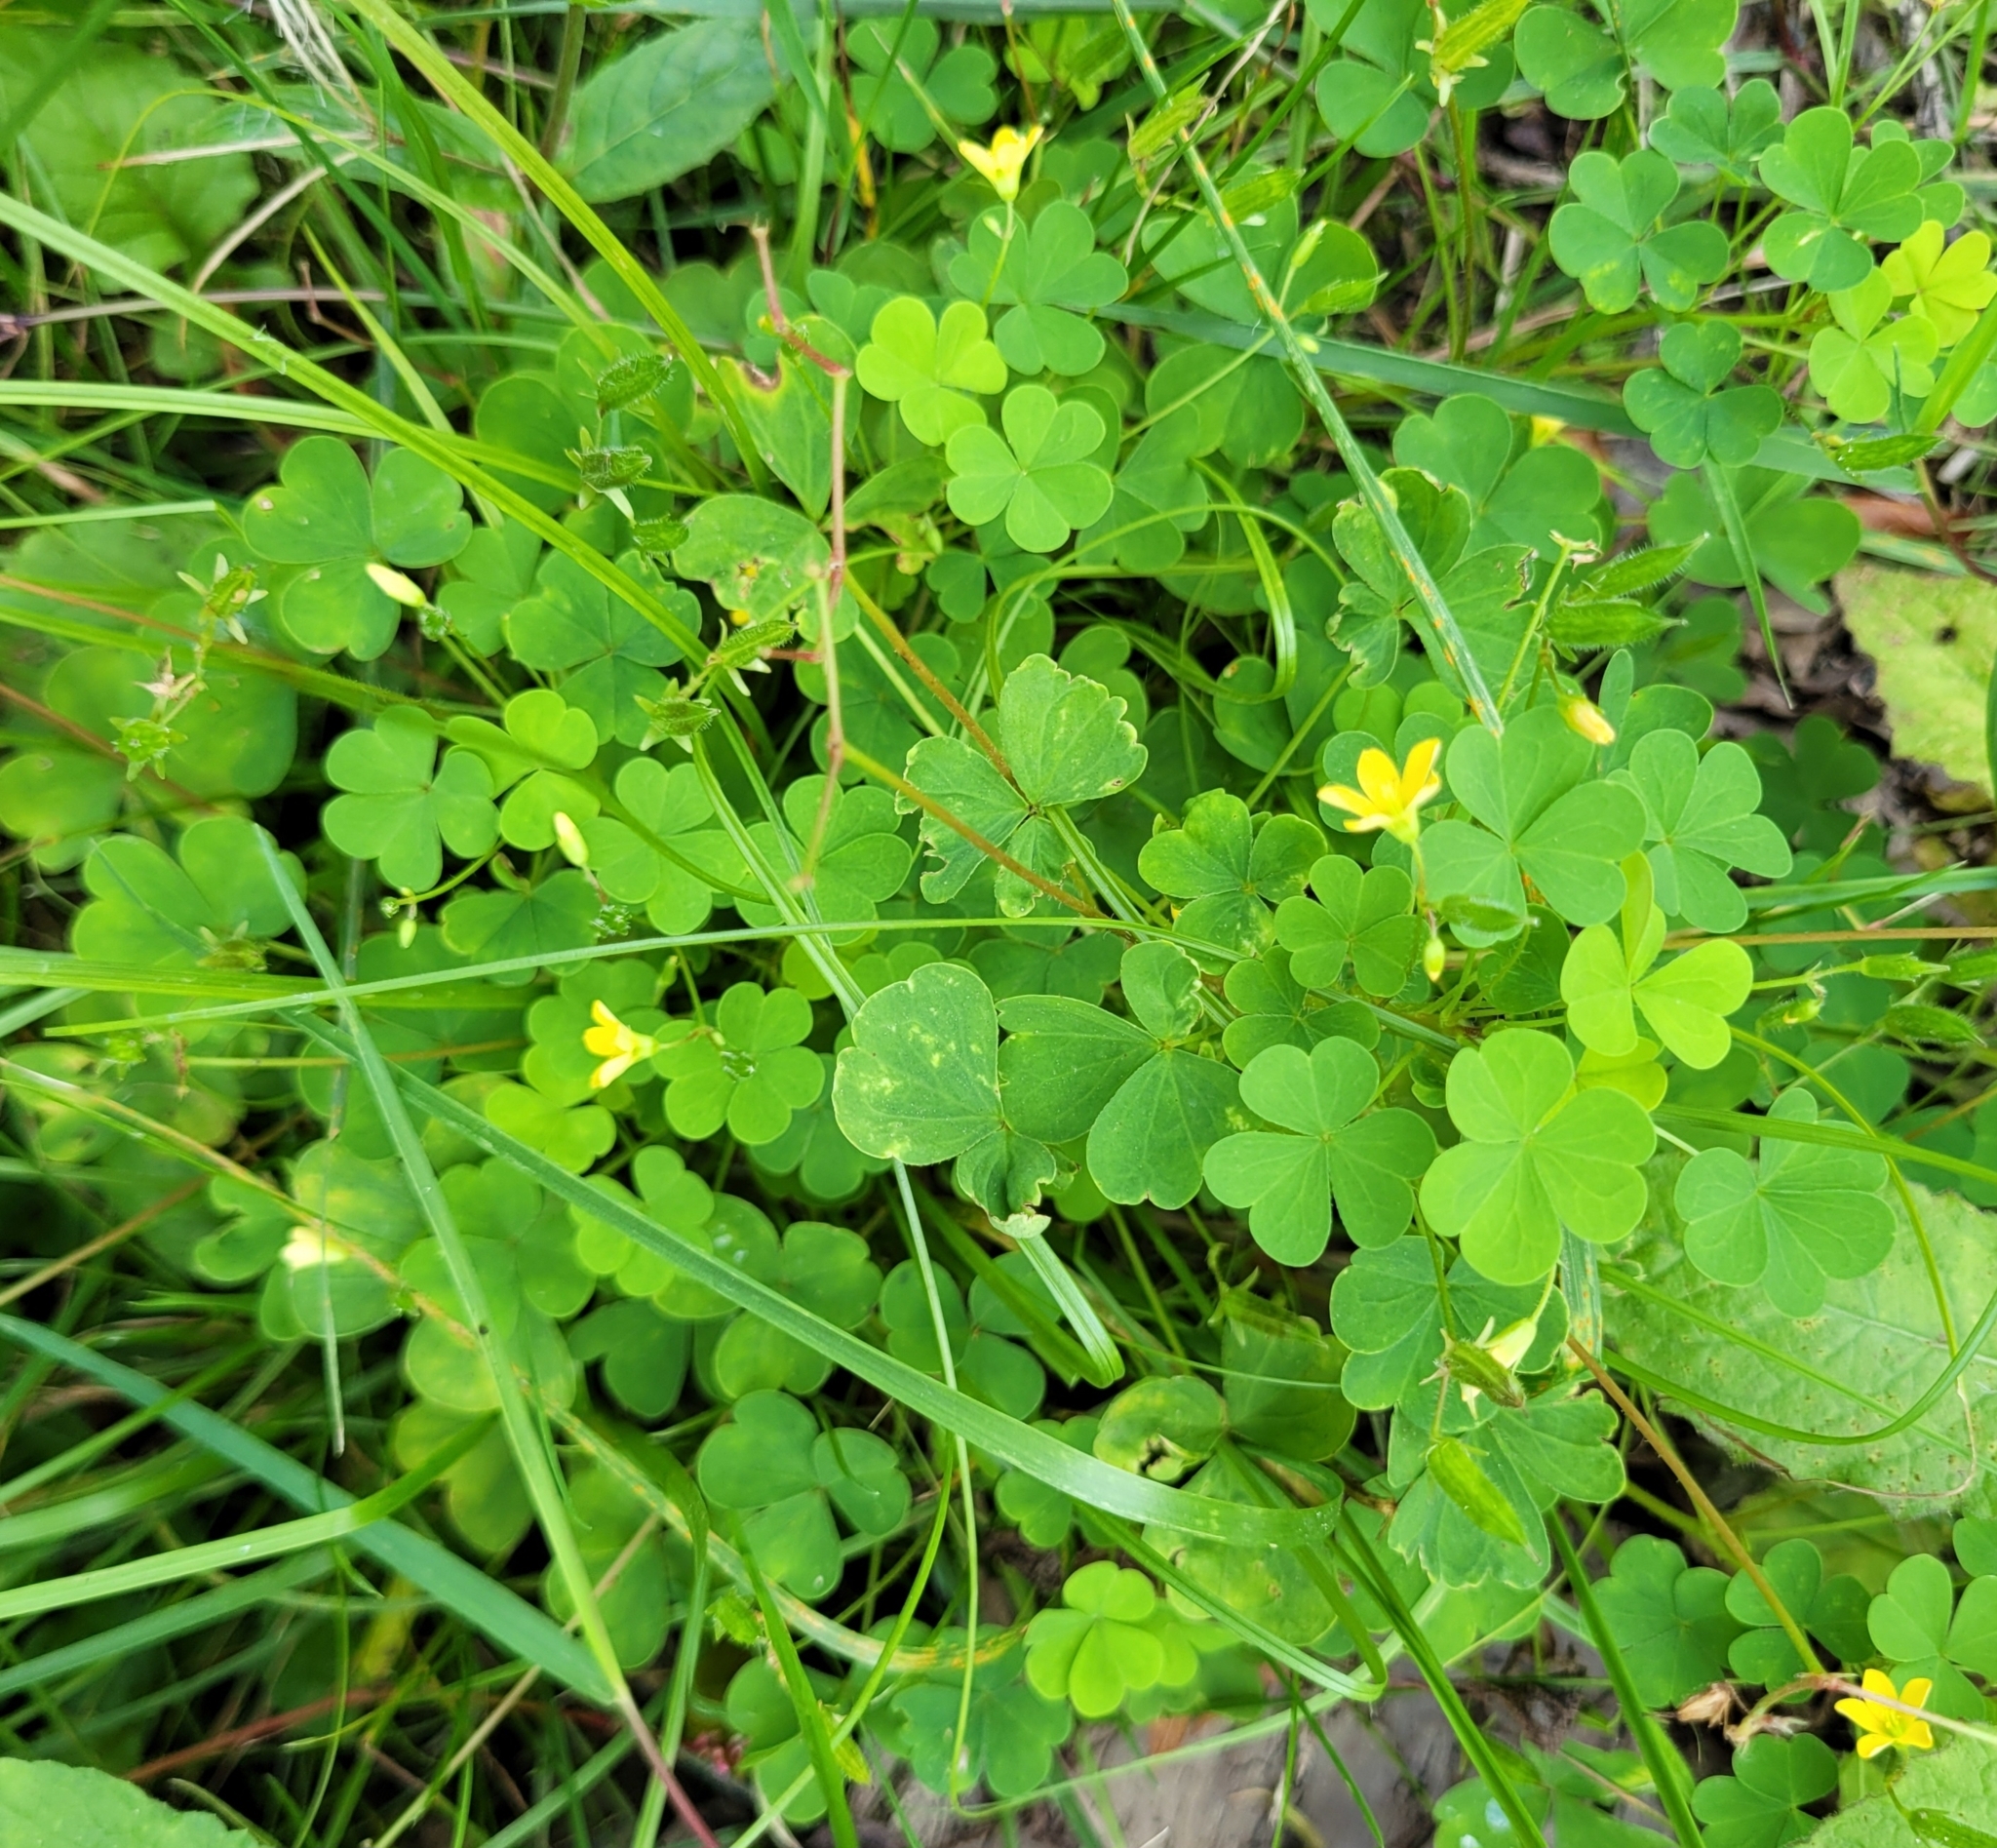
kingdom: Plantae
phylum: Tracheophyta
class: Magnoliopsida
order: Oxalidales
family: Oxalidaceae
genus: Oxalis
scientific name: Oxalis stricta
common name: Upright yellow-sorrel
